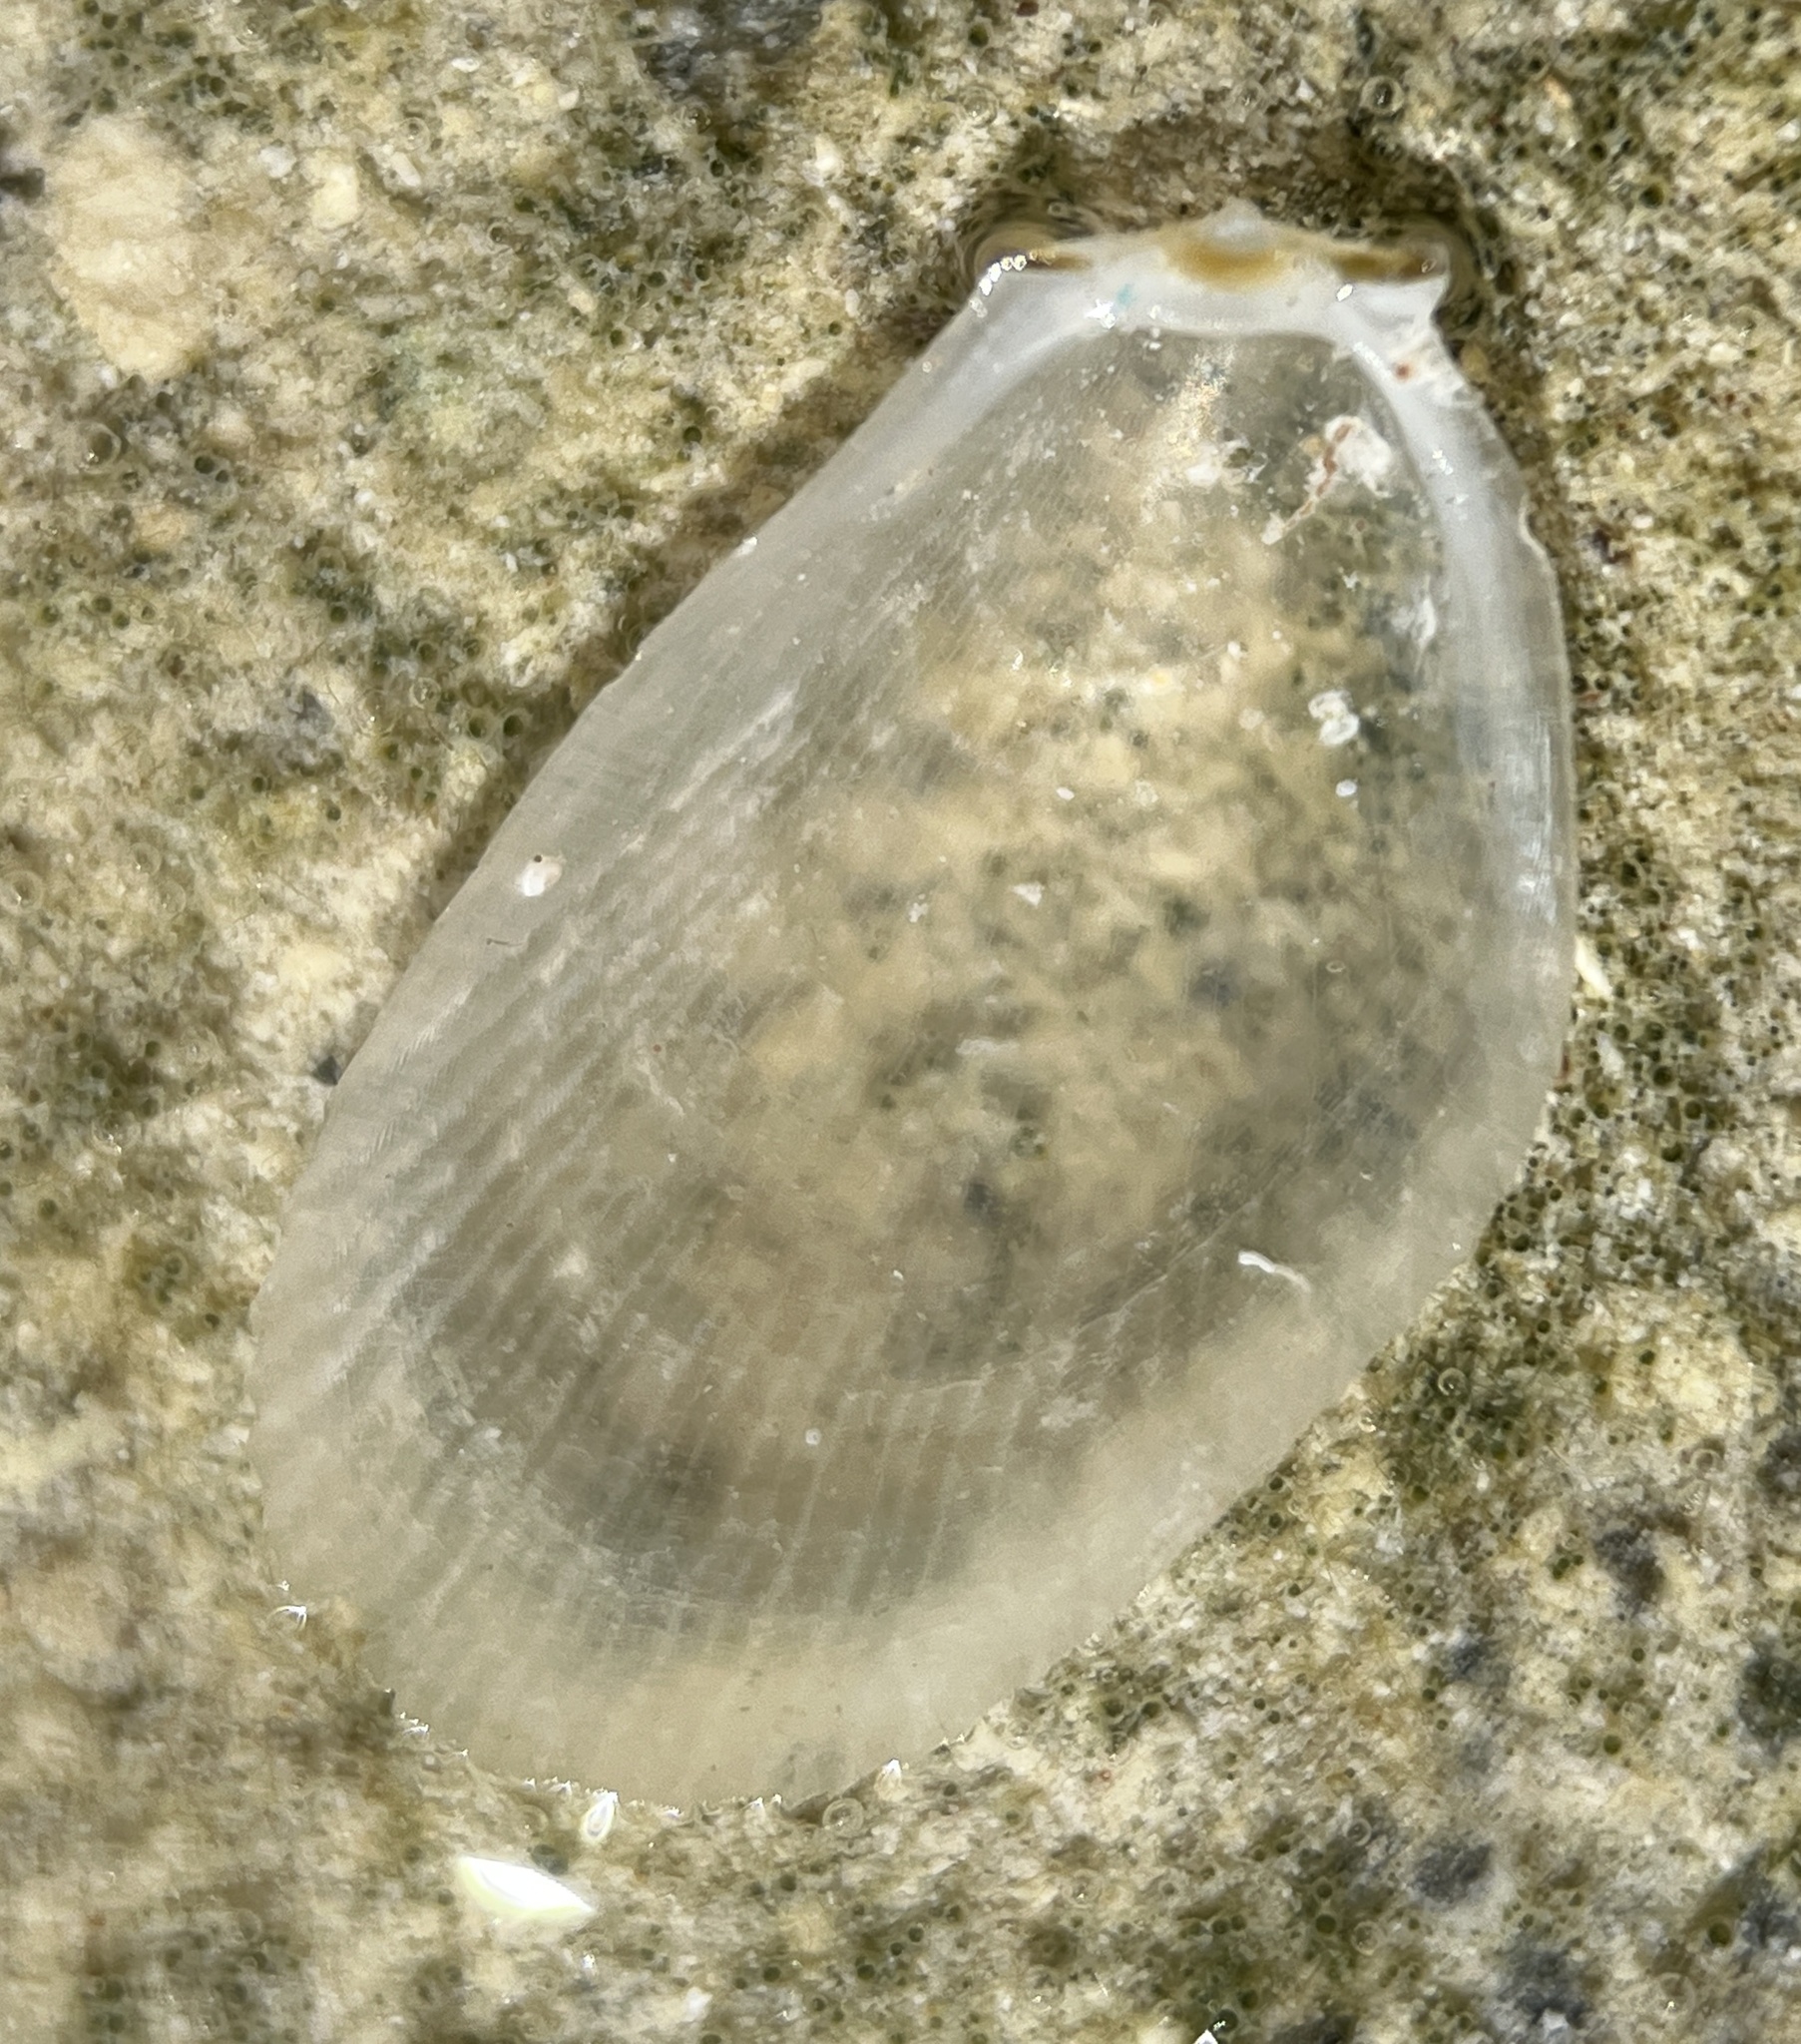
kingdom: Animalia
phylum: Mollusca
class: Bivalvia
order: Limida
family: Limidae
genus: Limaria
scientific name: Limaria pellucida
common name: Antillean fileclam
